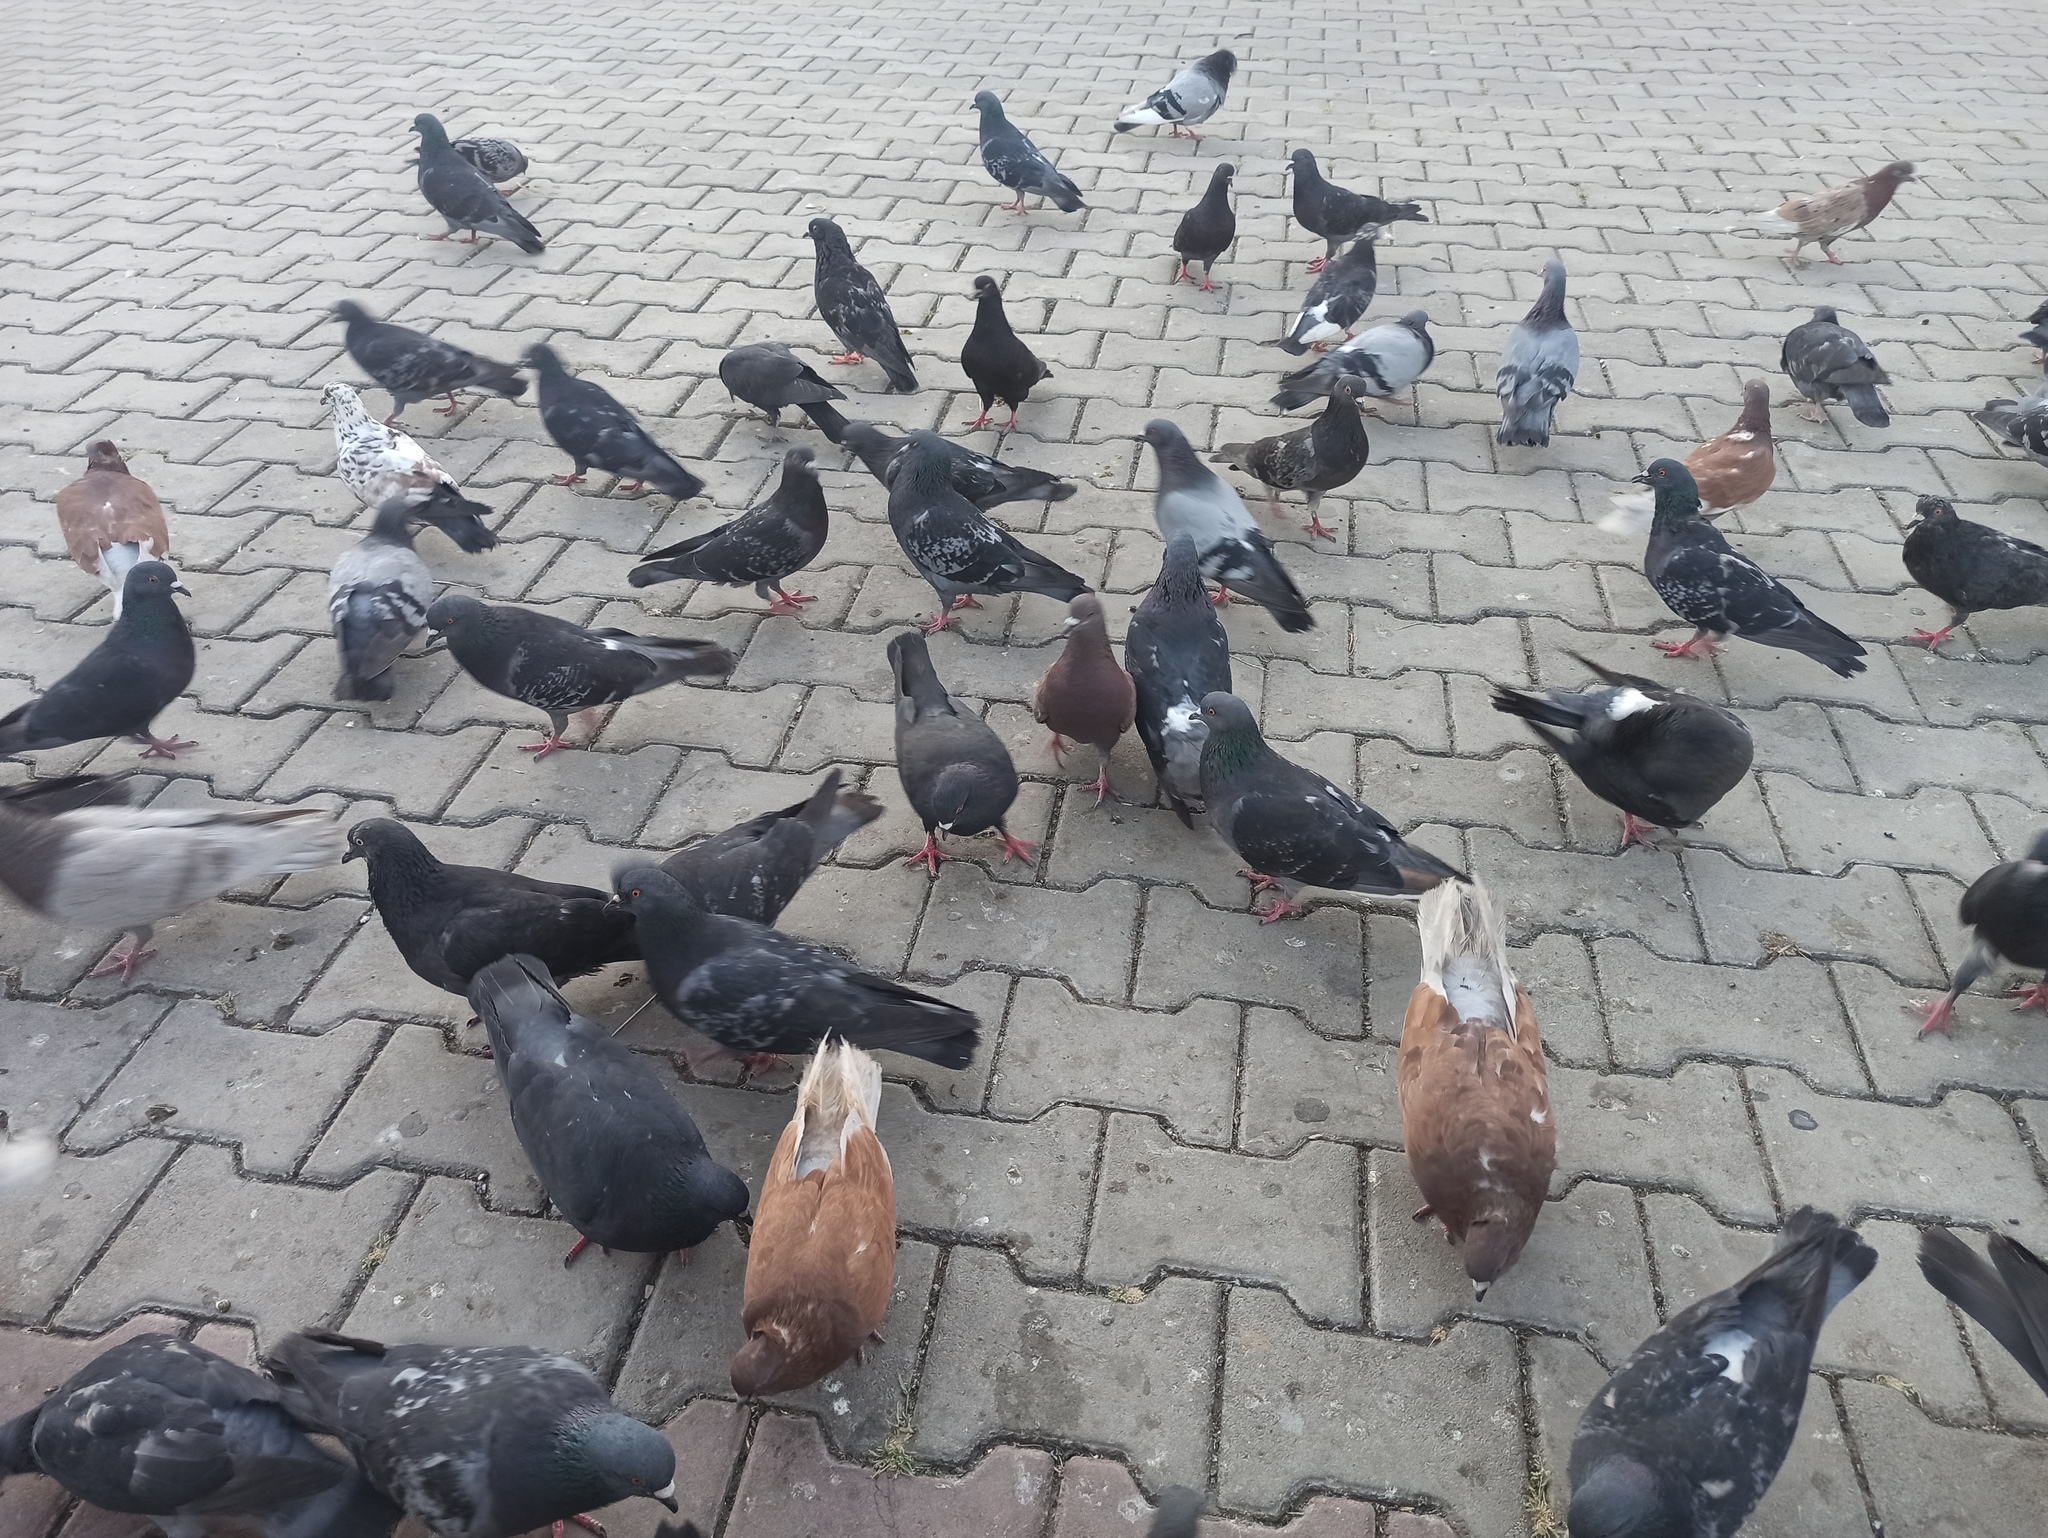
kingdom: Animalia
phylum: Chordata
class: Aves
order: Columbiformes
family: Columbidae
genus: Columba
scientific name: Columba livia
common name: Rock pigeon
